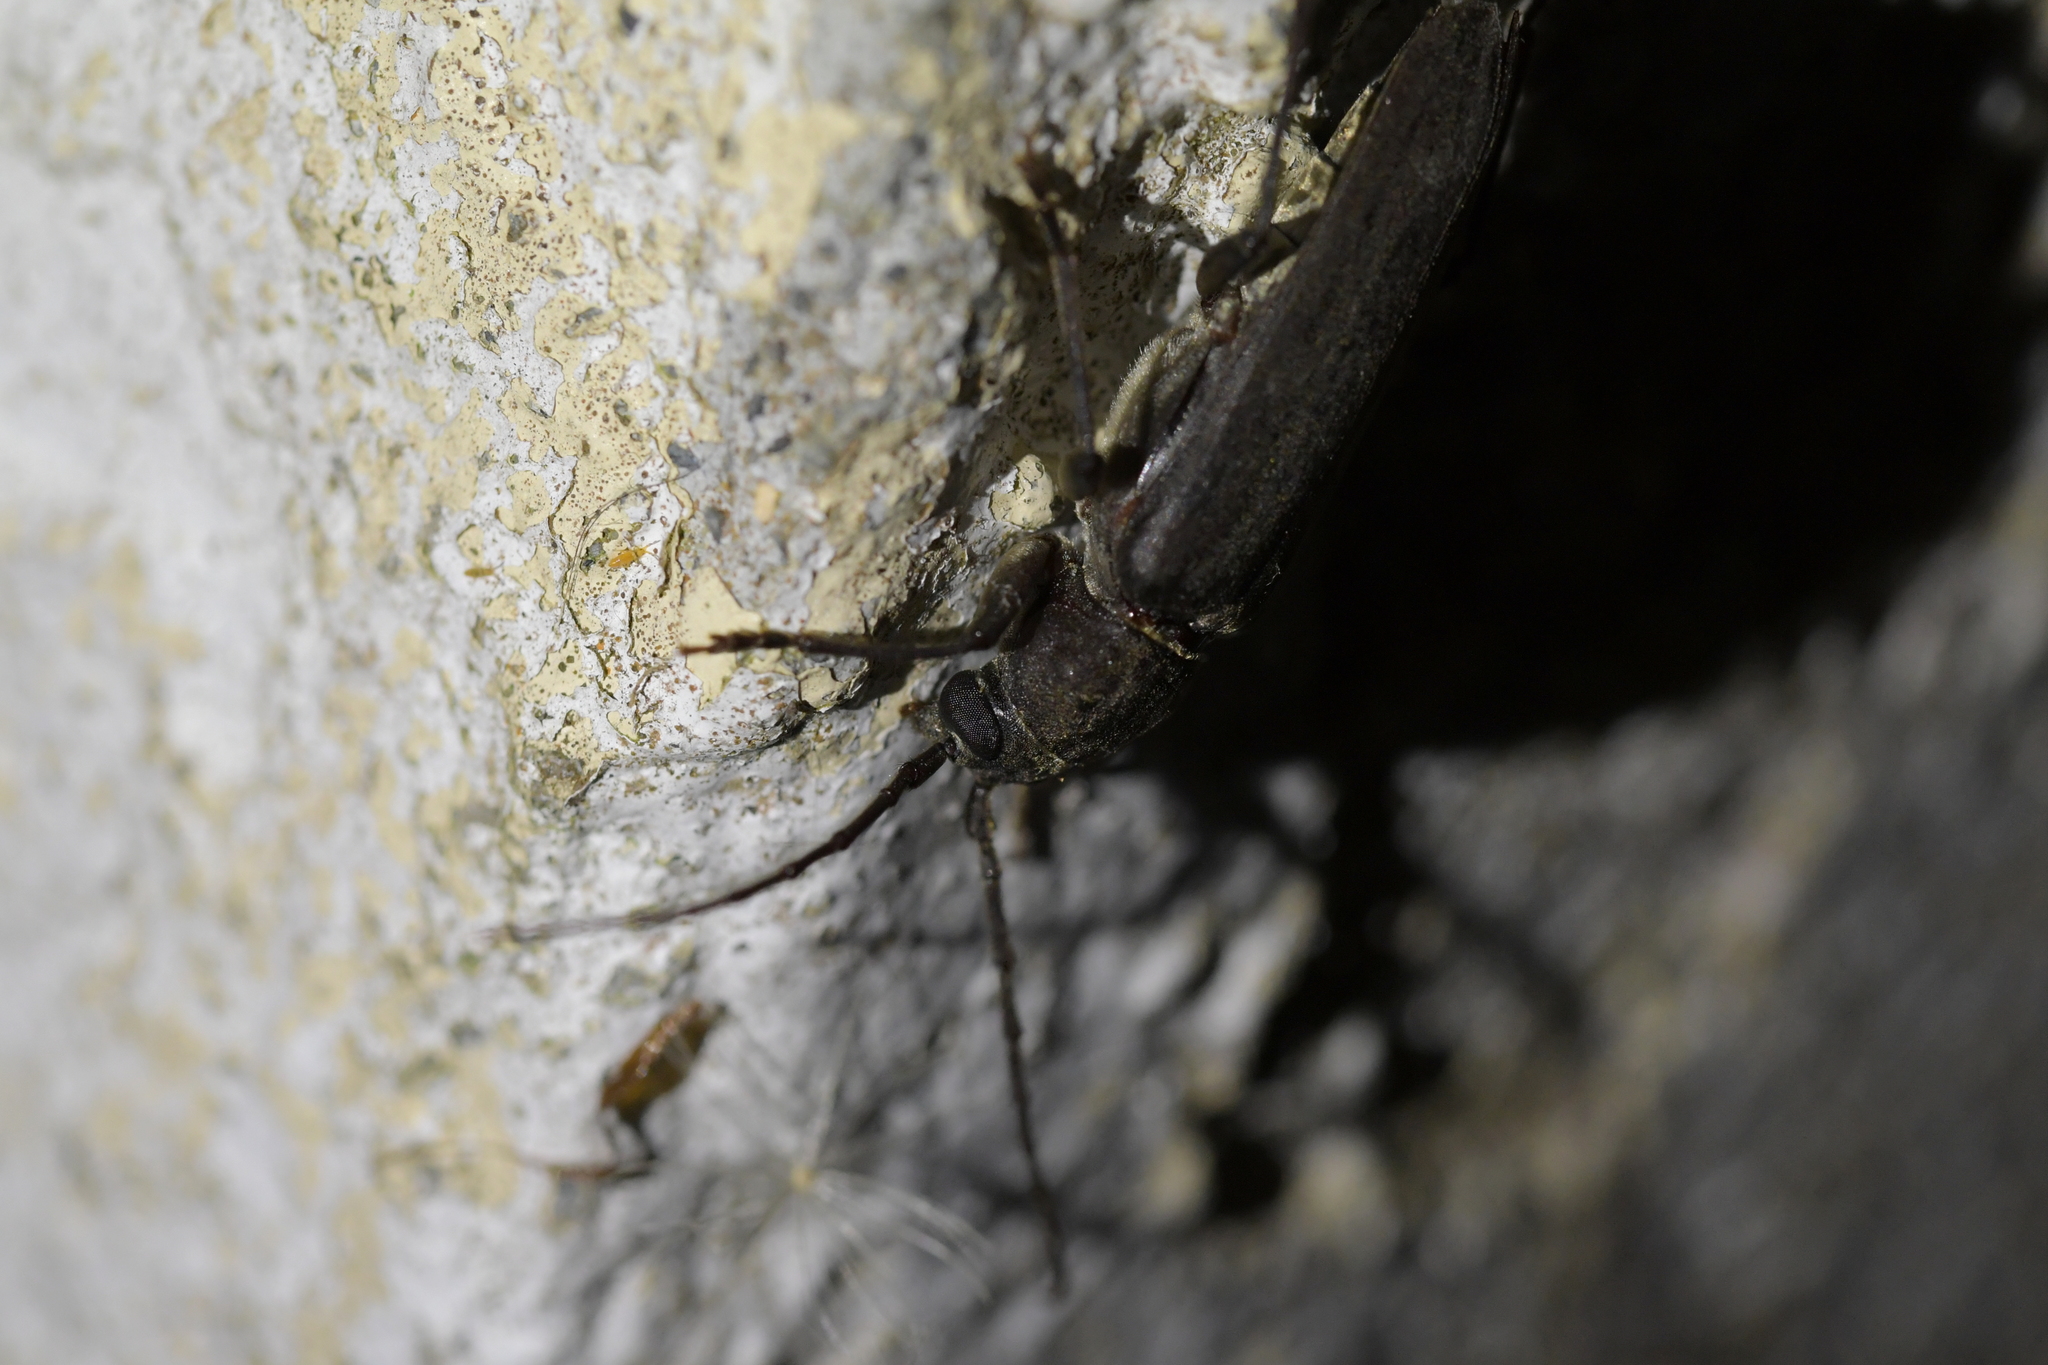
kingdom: Animalia
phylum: Arthropoda
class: Insecta
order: Coleoptera
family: Cerambycidae
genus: Arhopalus
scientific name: Arhopalus ferus
